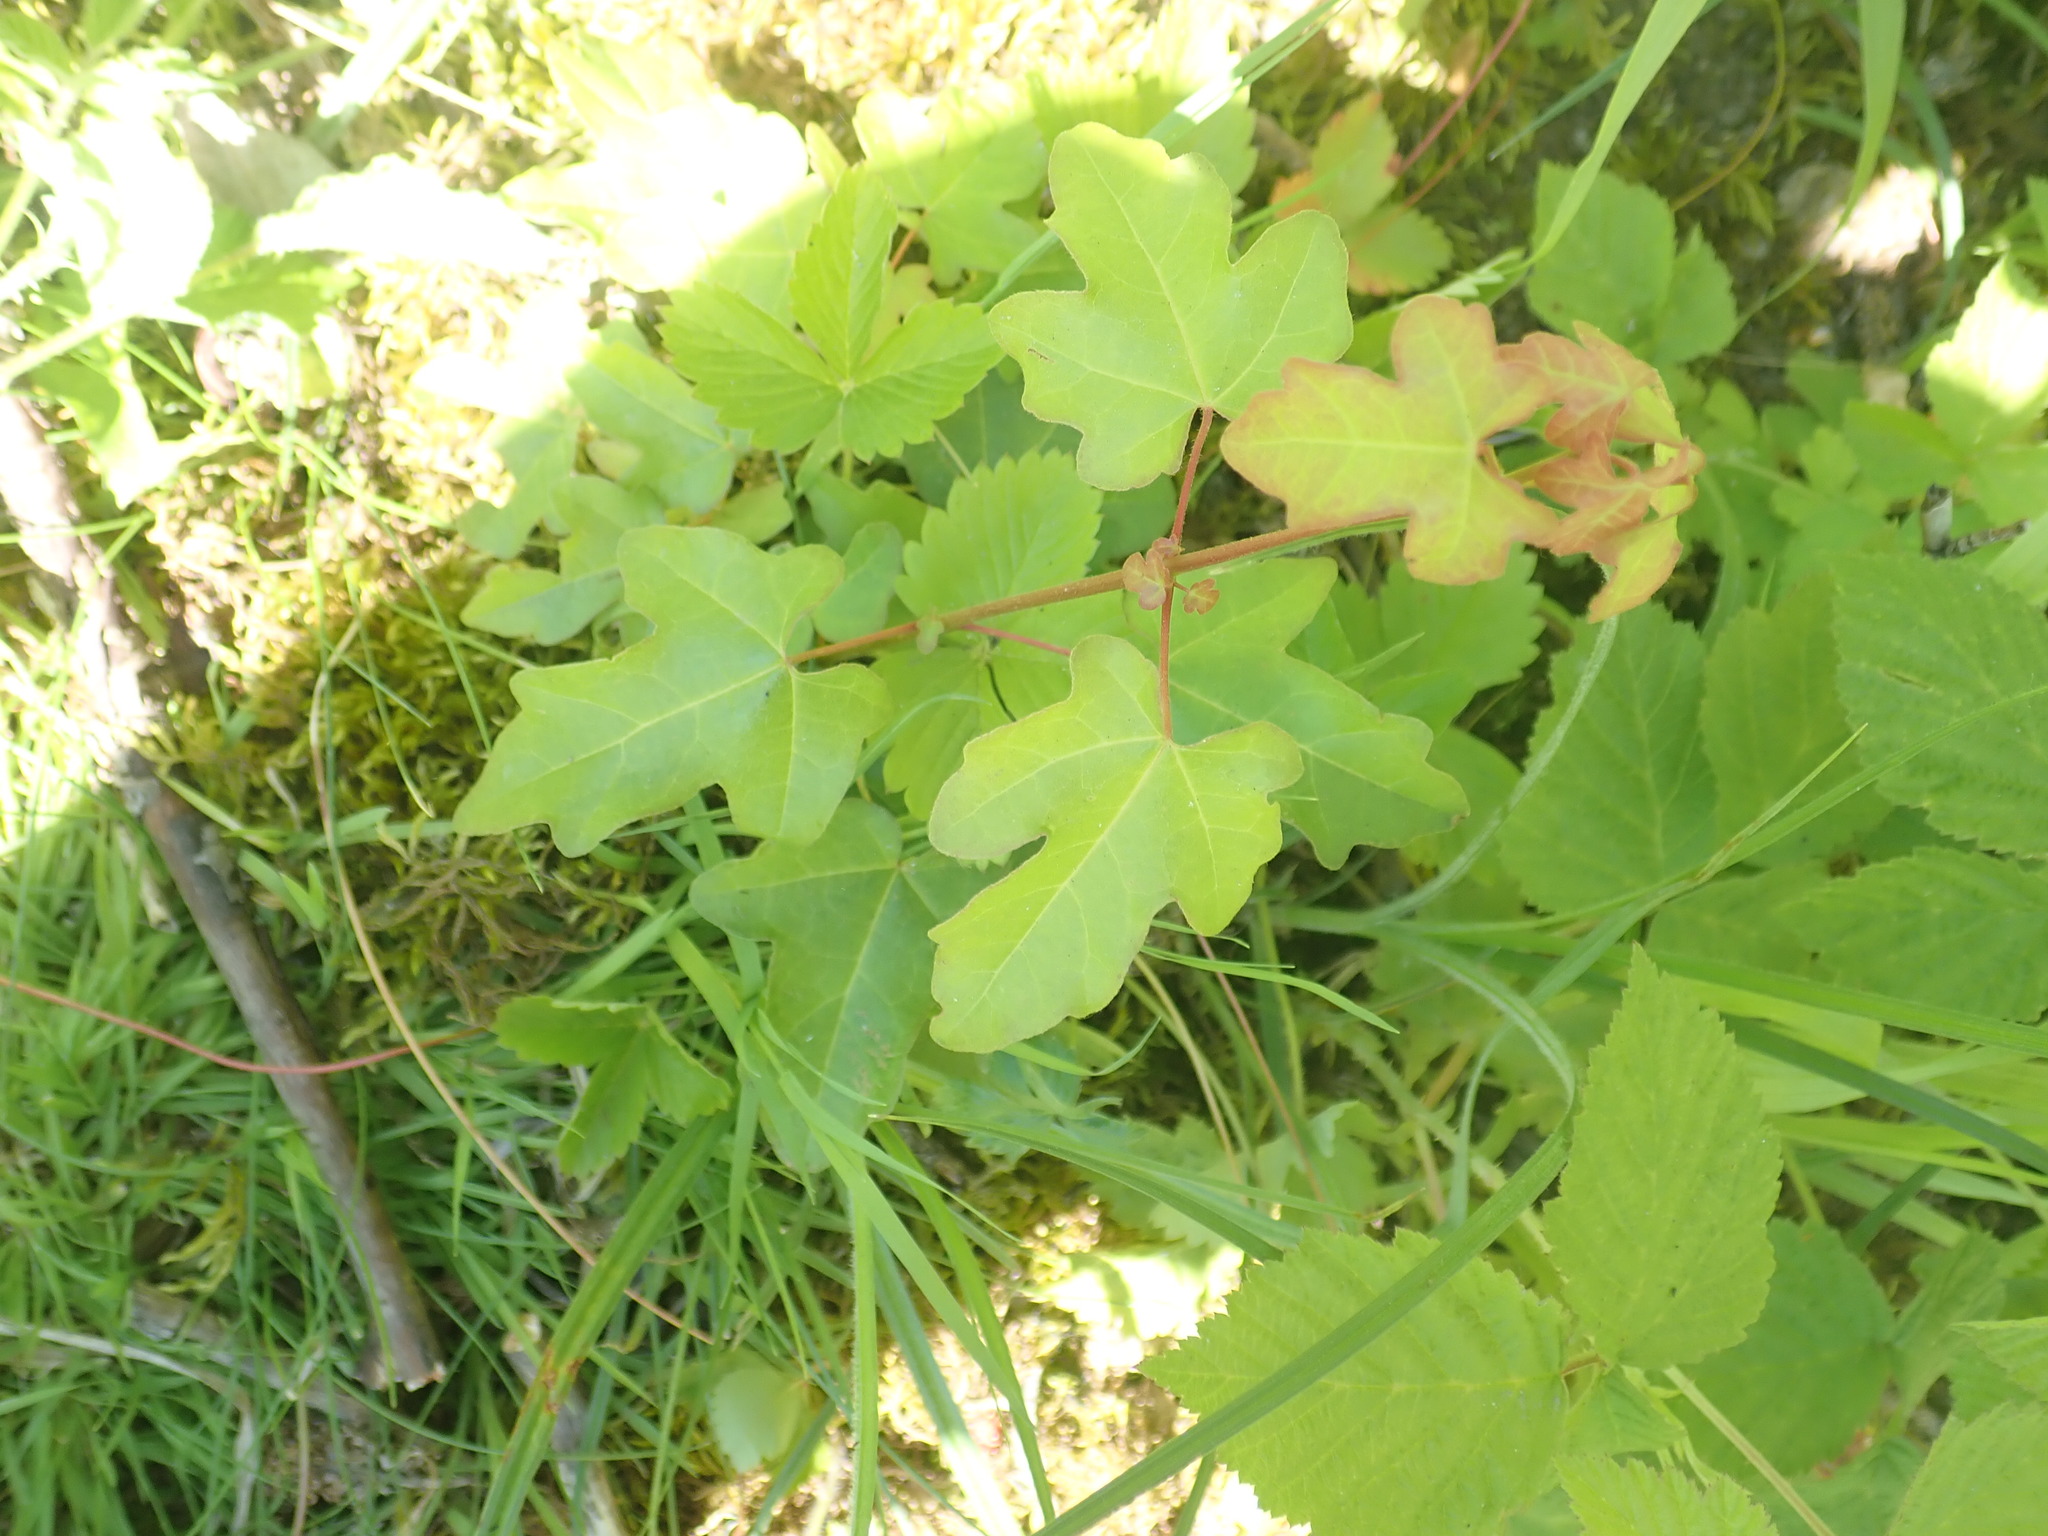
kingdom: Plantae
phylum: Tracheophyta
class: Magnoliopsida
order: Sapindales
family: Sapindaceae
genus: Acer
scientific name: Acer campestre
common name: Field maple
